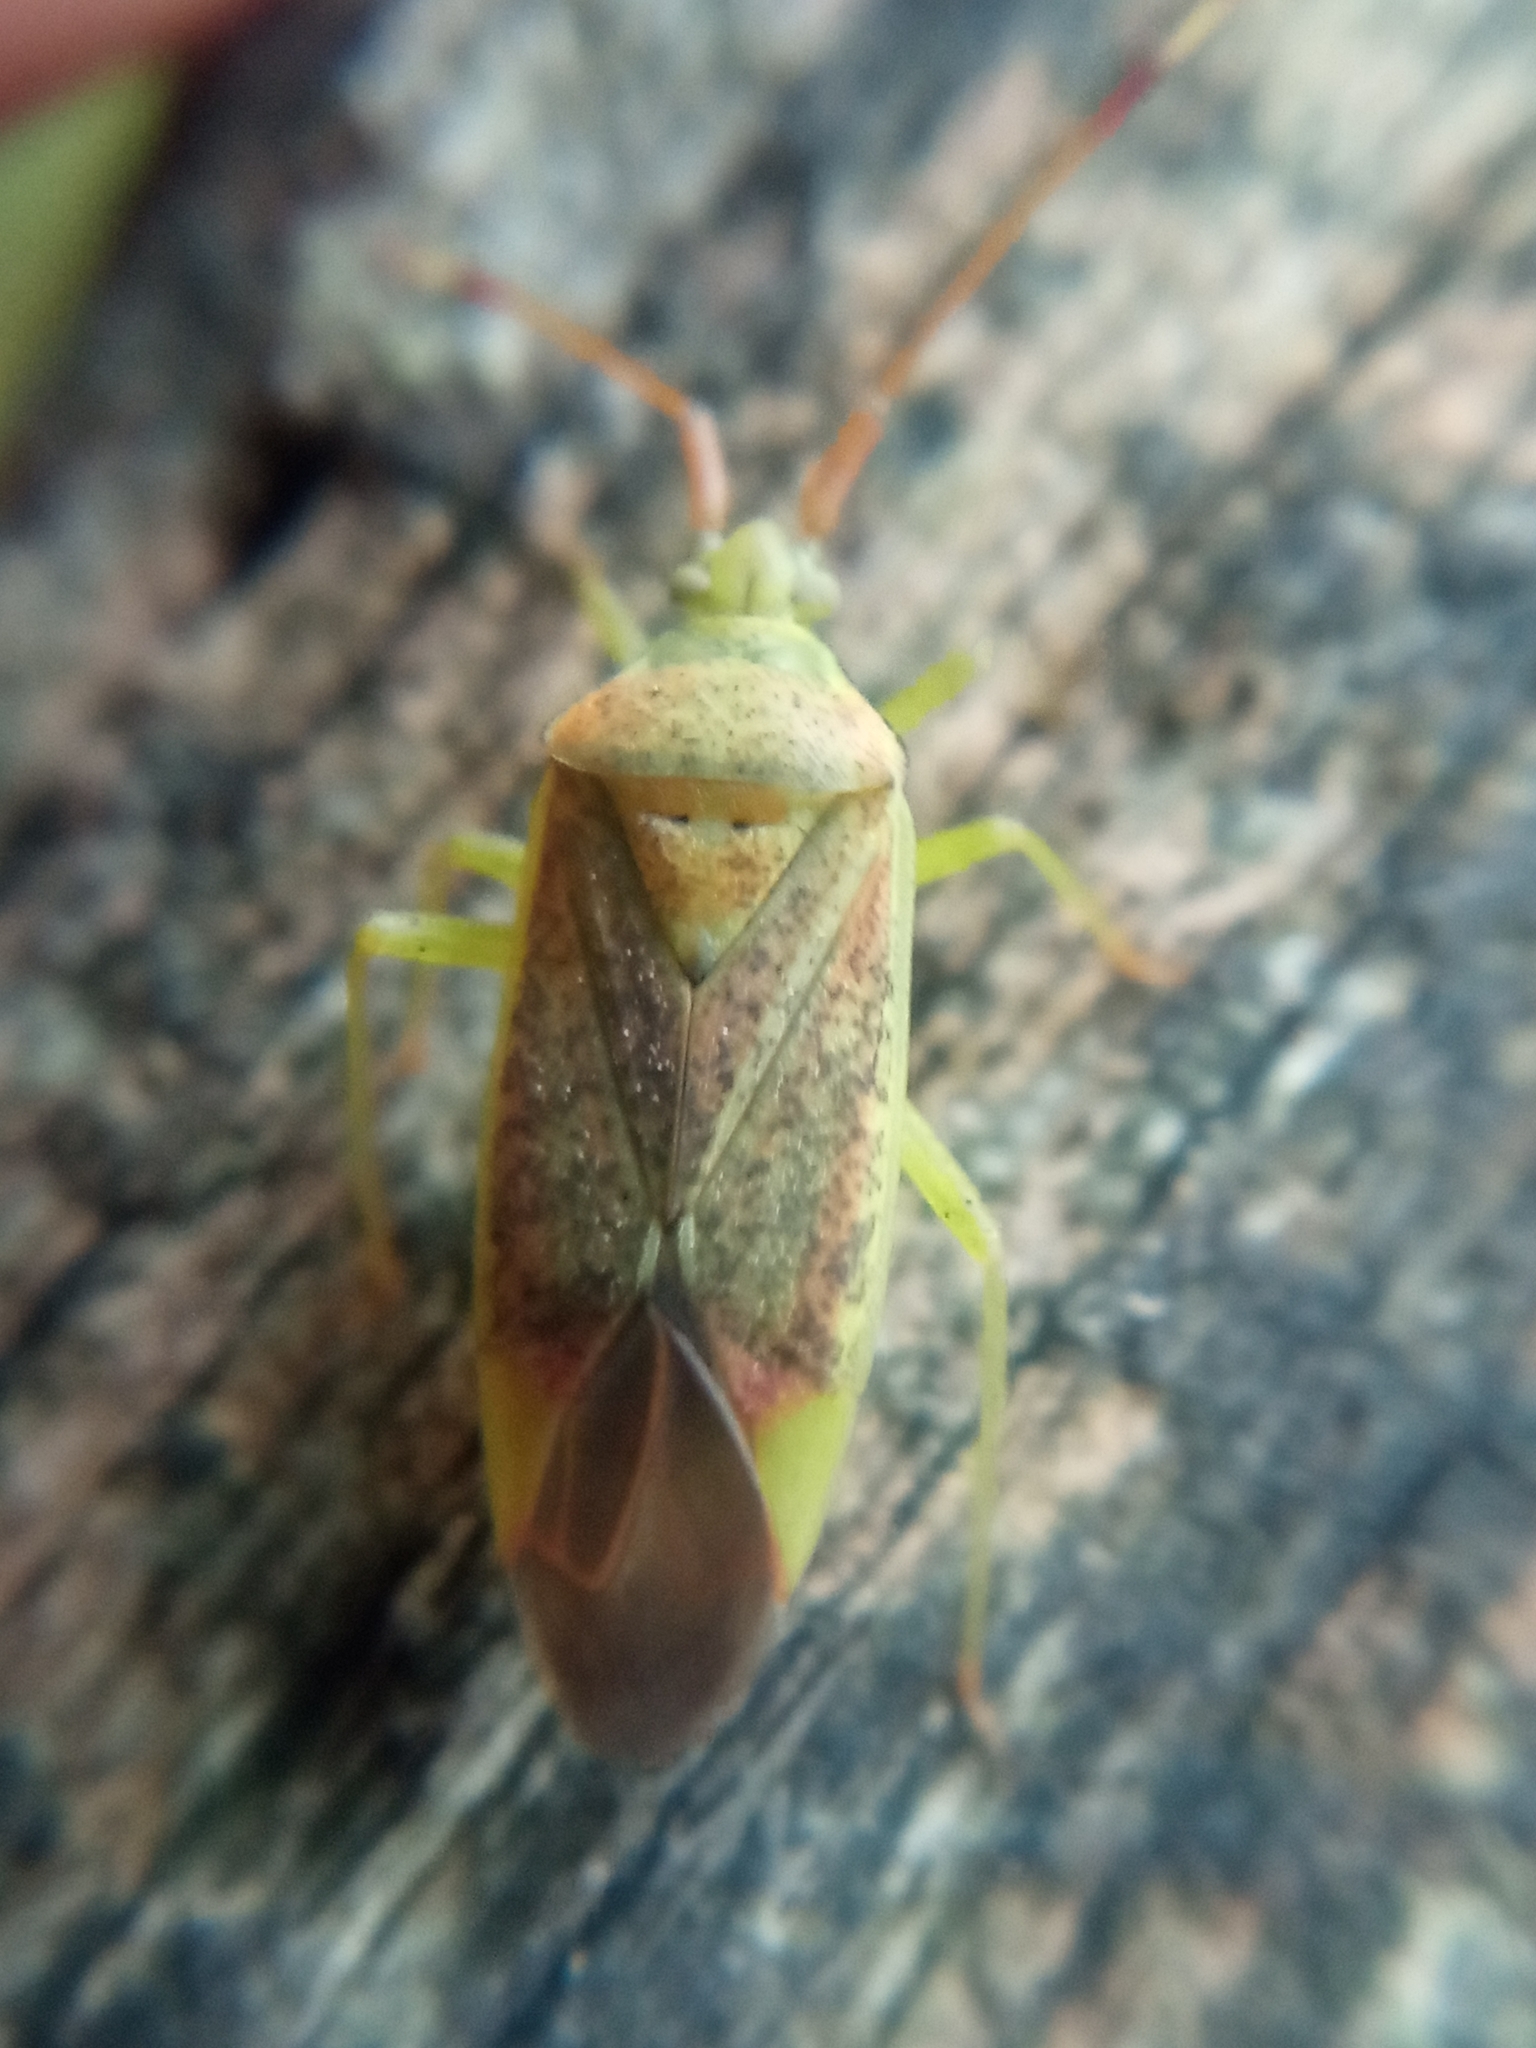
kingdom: Animalia
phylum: Arthropoda
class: Insecta
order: Hemiptera
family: Miridae
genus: Pantilius
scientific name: Pantilius tunicatus
